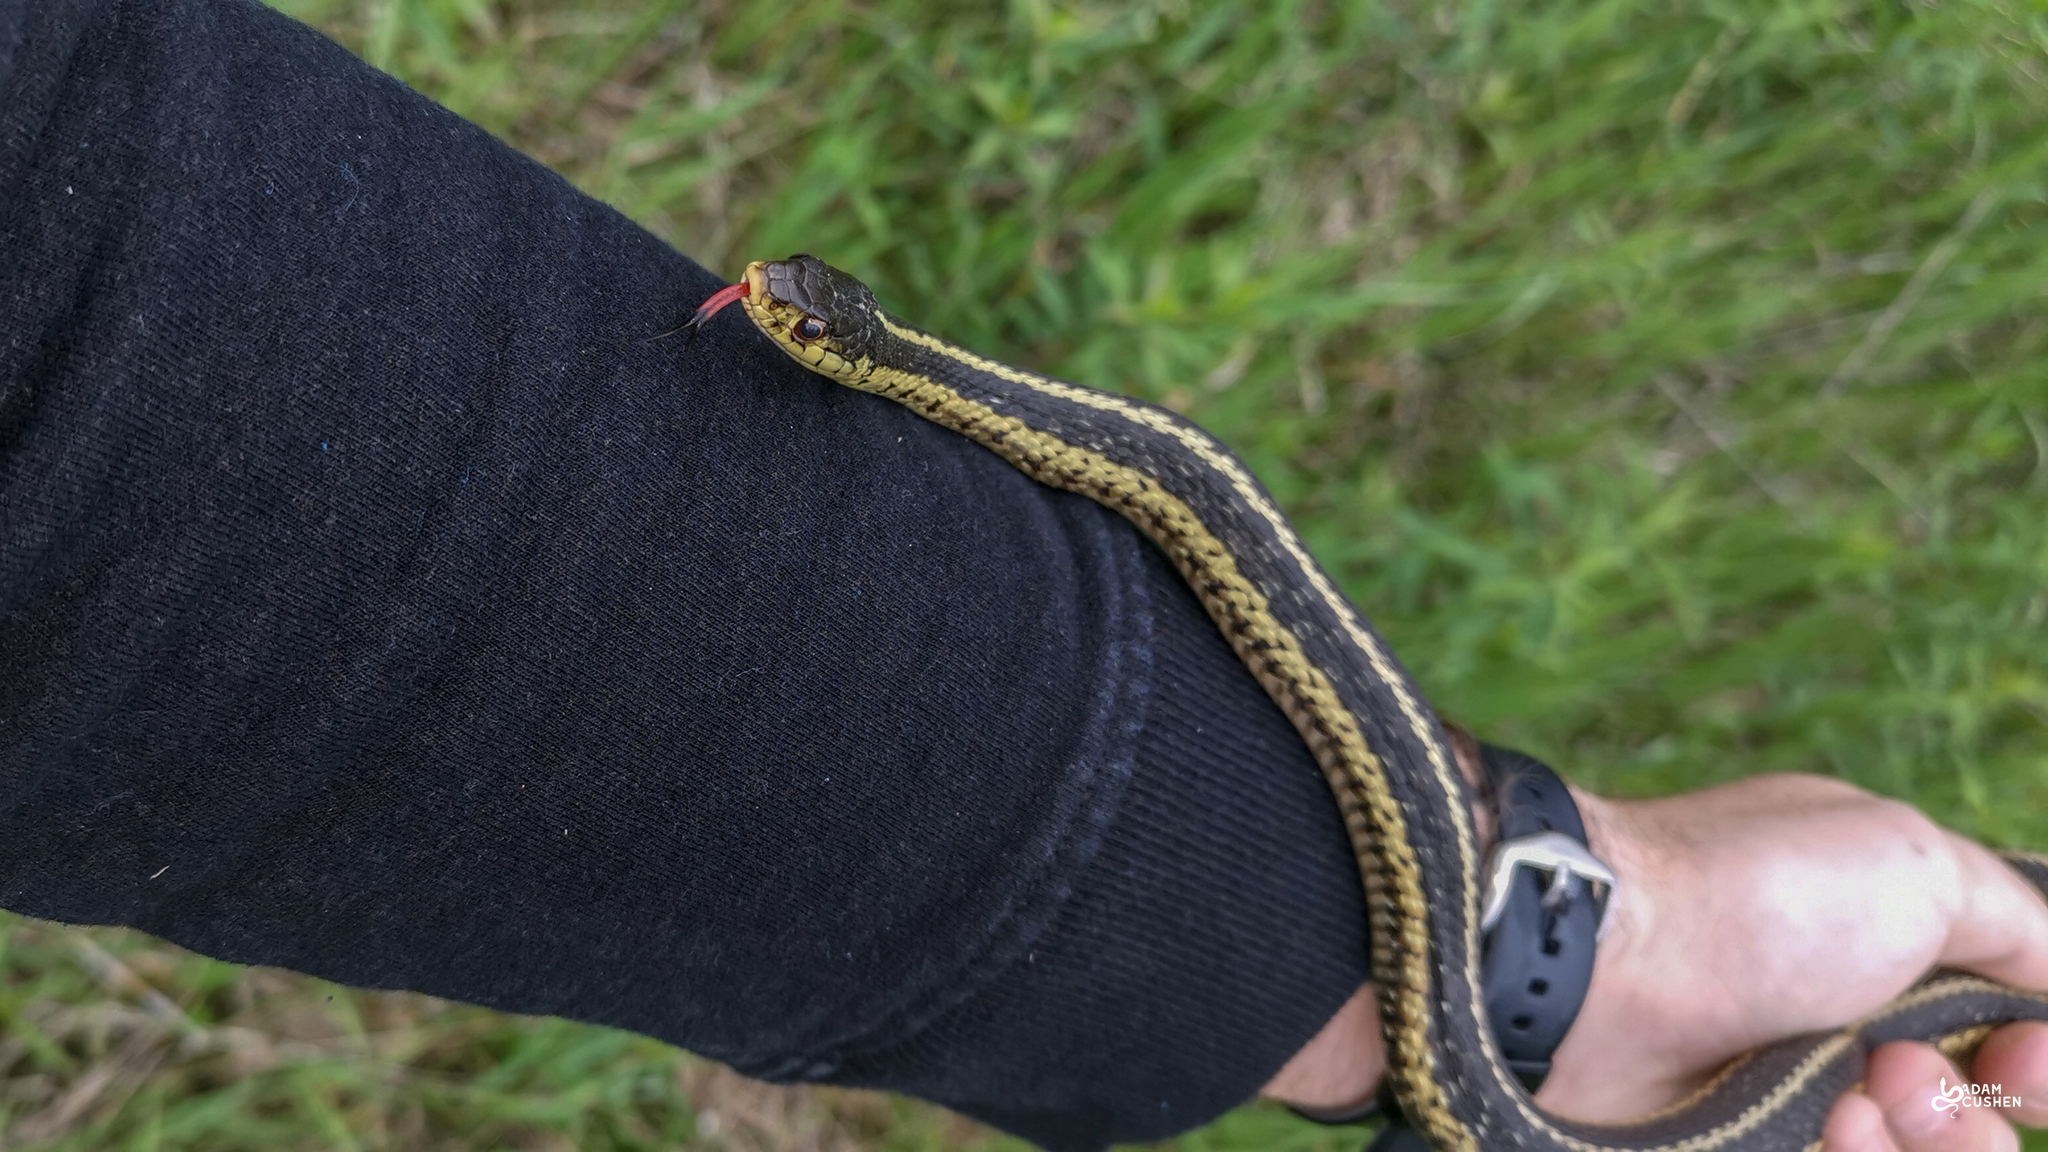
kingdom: Animalia
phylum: Chordata
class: Squamata
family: Colubridae
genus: Thamnophis
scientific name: Thamnophis sirtalis
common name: Common garter snake
